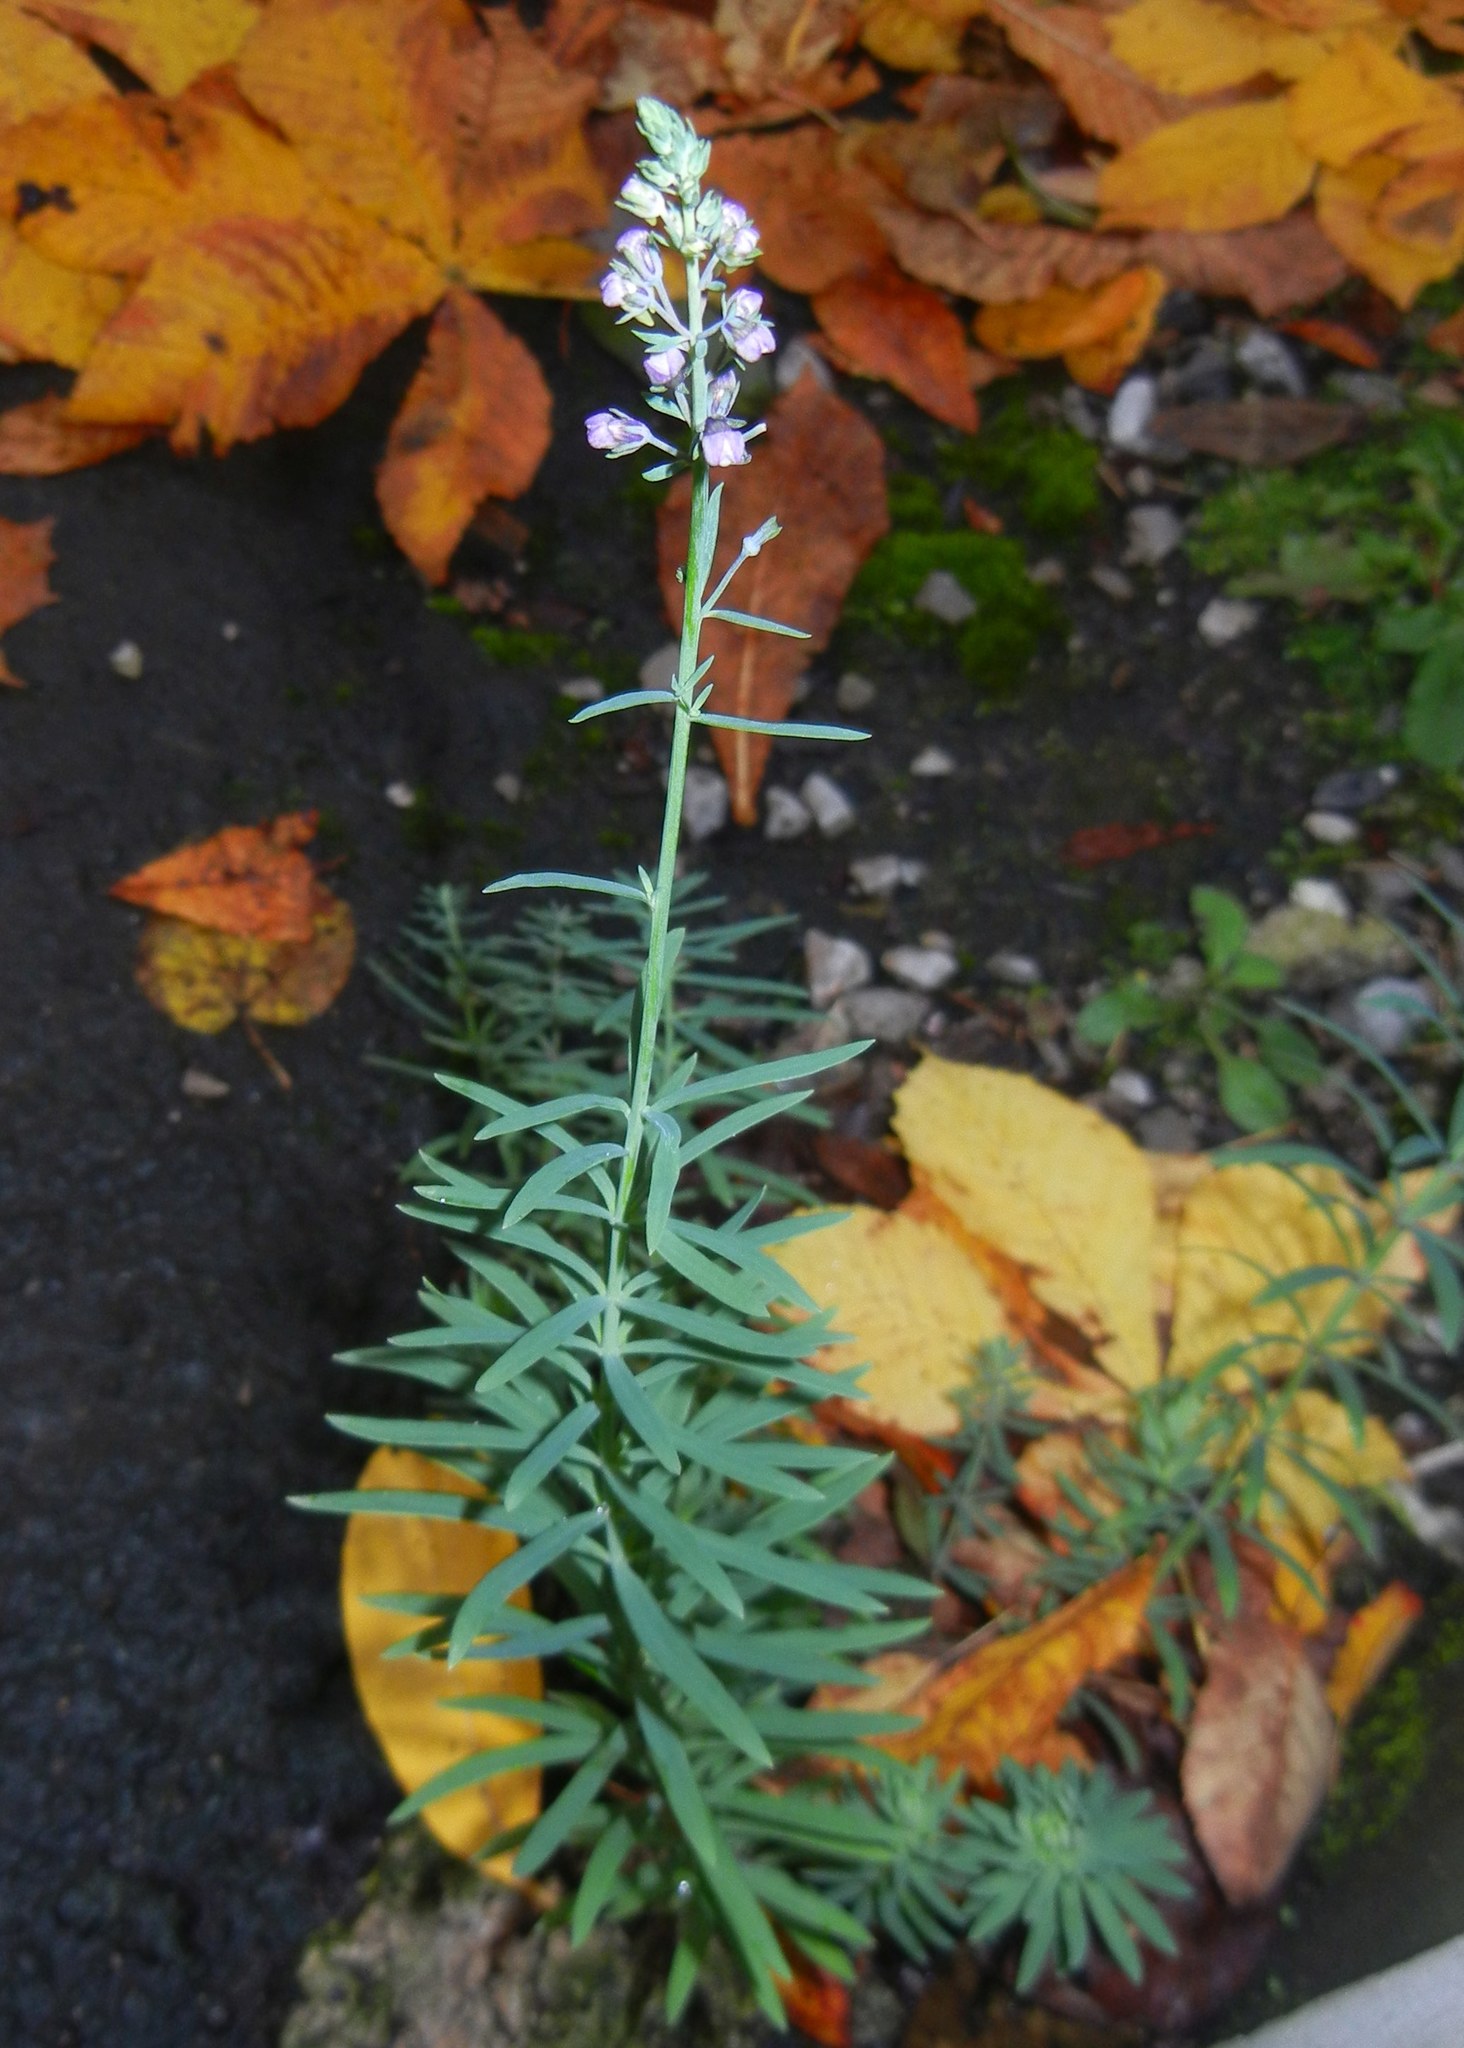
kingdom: Plantae
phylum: Tracheophyta
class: Magnoliopsida
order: Lamiales
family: Plantaginaceae
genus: Linaria
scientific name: Linaria purpurea
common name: Purple toadflax
